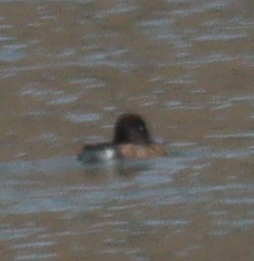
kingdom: Animalia
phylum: Chordata
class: Aves
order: Anseriformes
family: Anatidae
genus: Aythya
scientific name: Aythya nyroca
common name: Ferruginous duck
